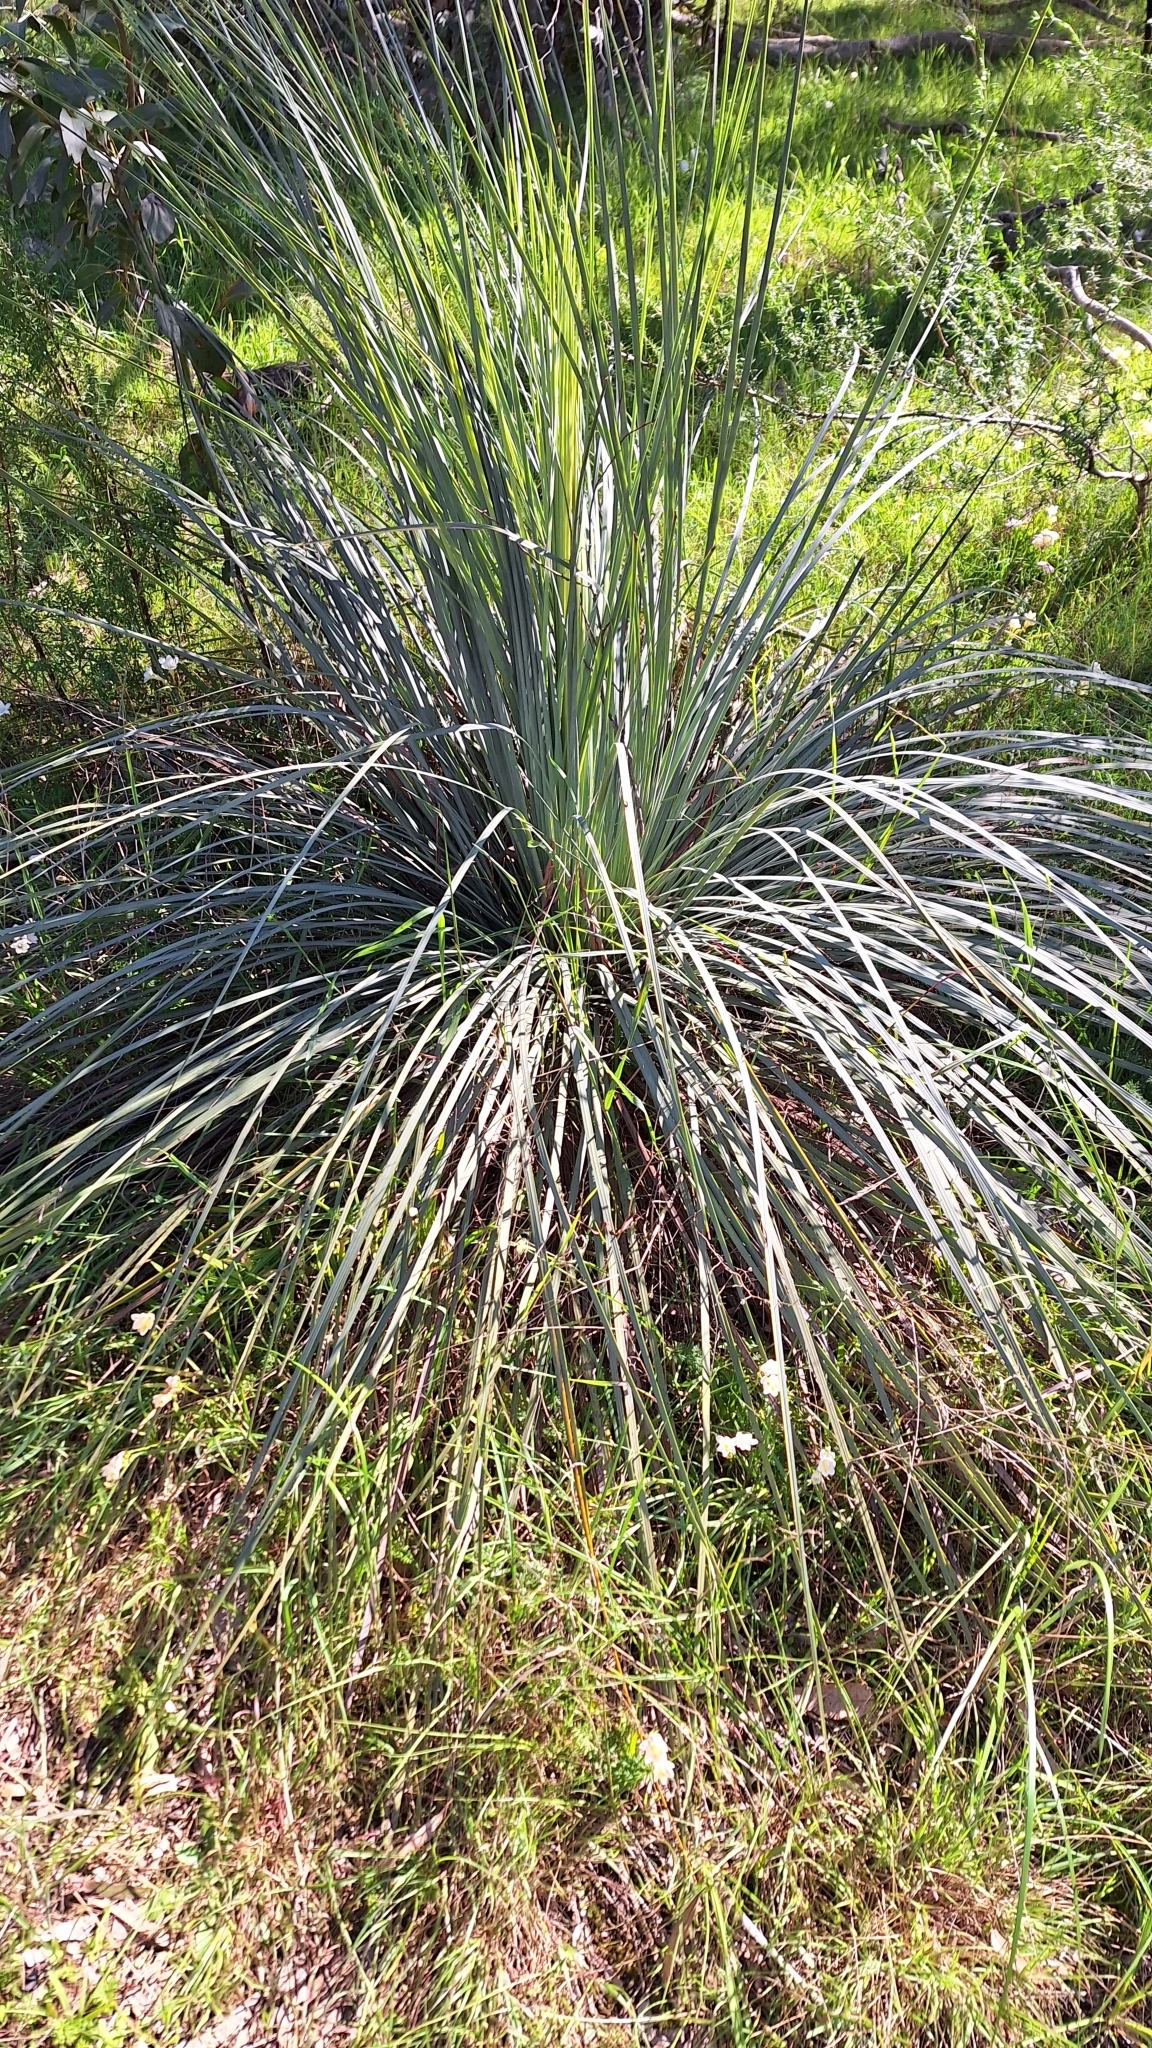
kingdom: Plantae
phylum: Tracheophyta
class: Liliopsida
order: Asparagales
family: Asphodelaceae
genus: Xanthorrhoea
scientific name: Xanthorrhoea semiplana
